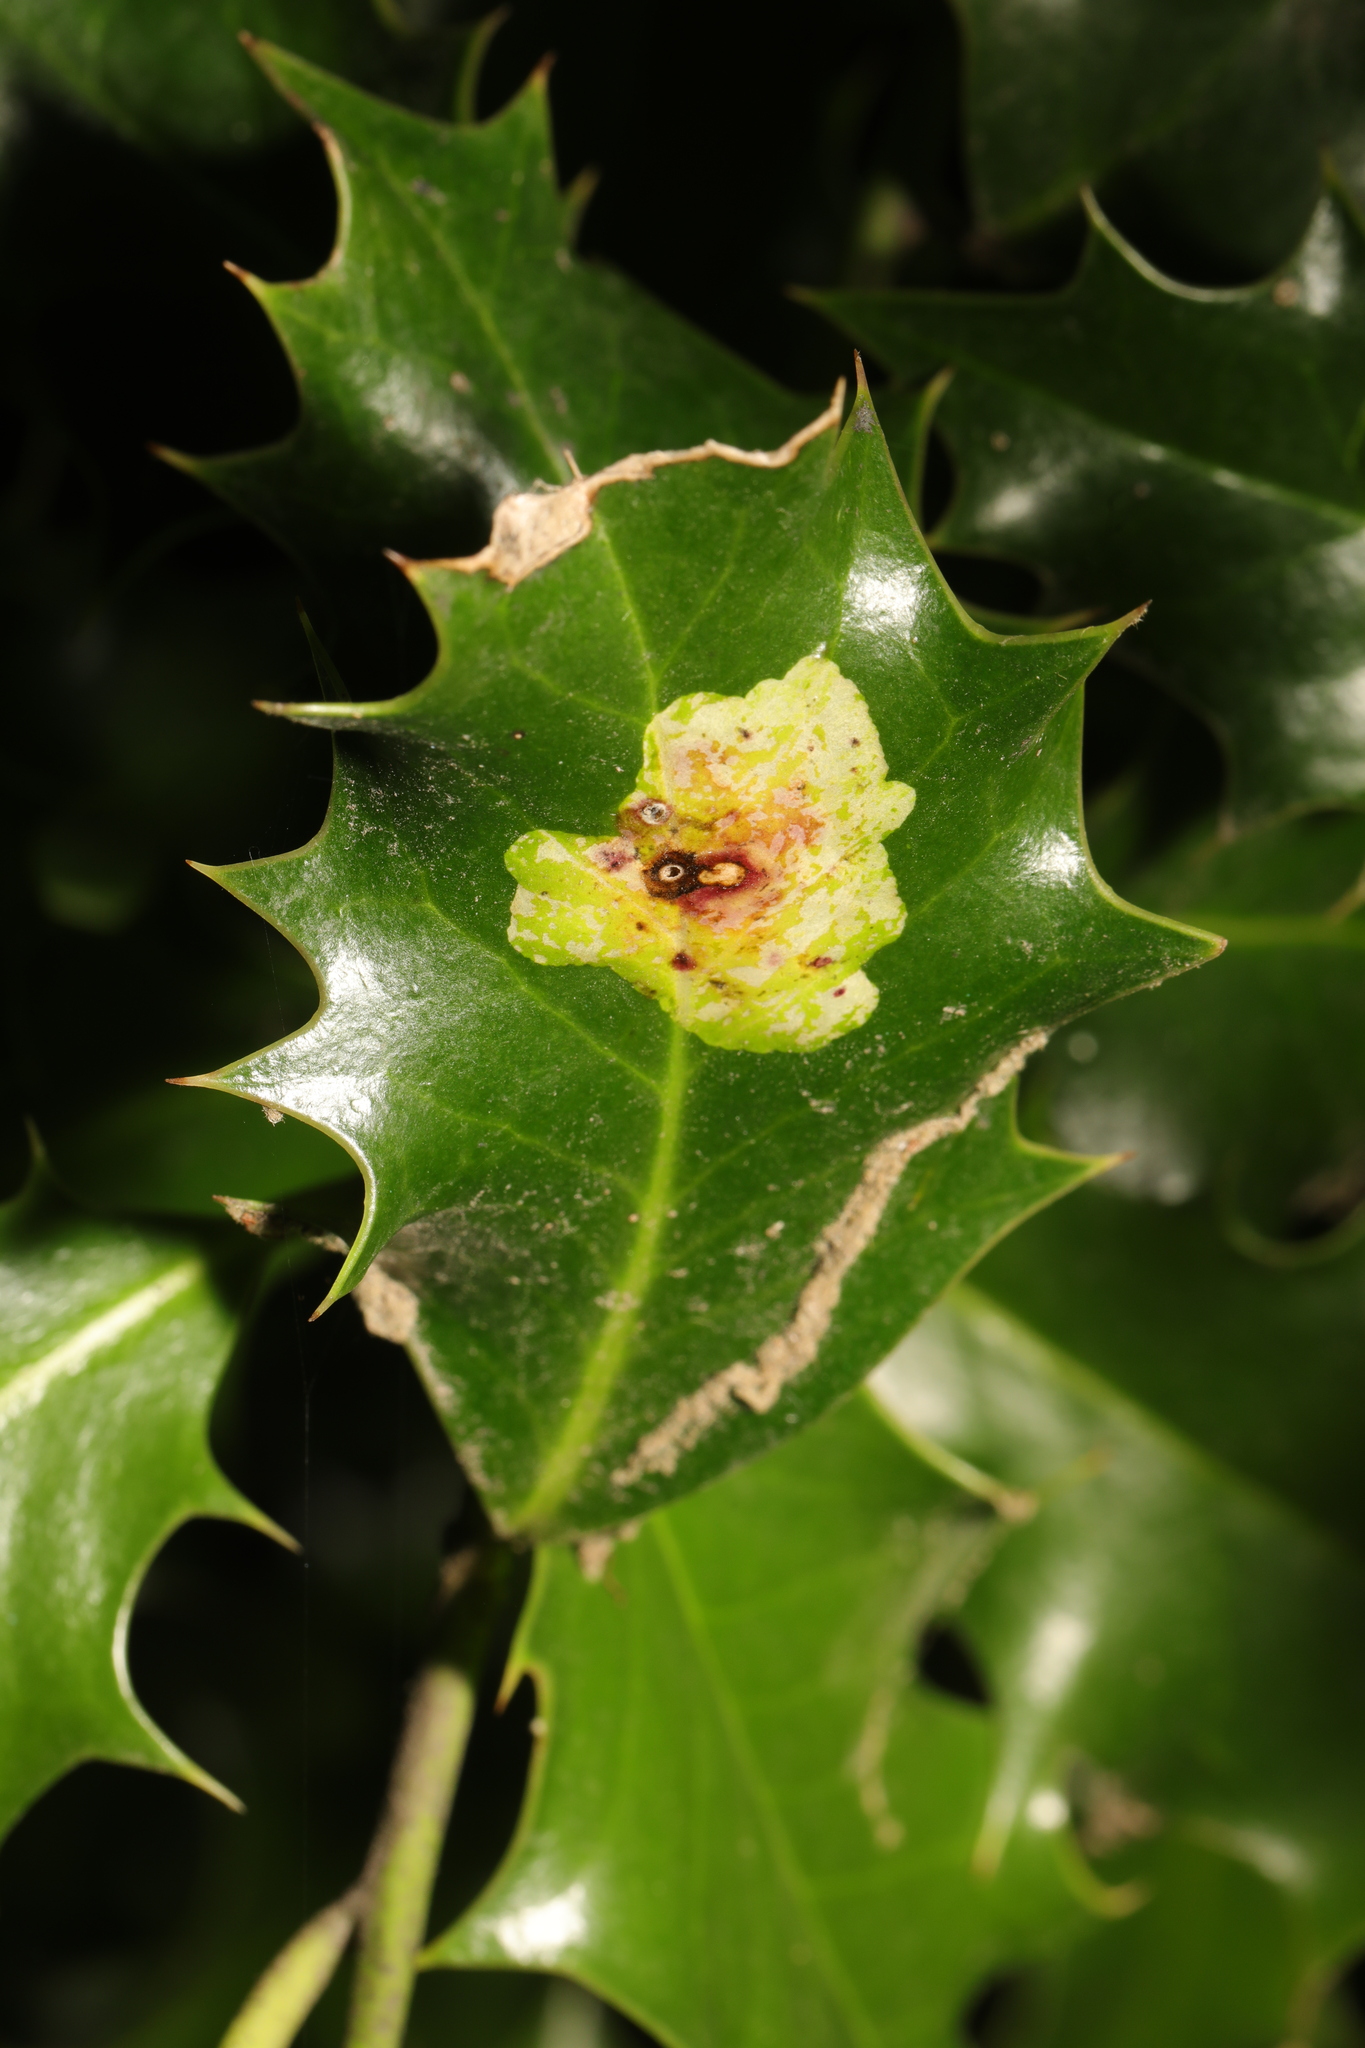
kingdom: Animalia
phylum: Arthropoda
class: Insecta
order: Diptera
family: Agromyzidae
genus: Phytomyza
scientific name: Phytomyza ilicis
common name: Holly leafminer
